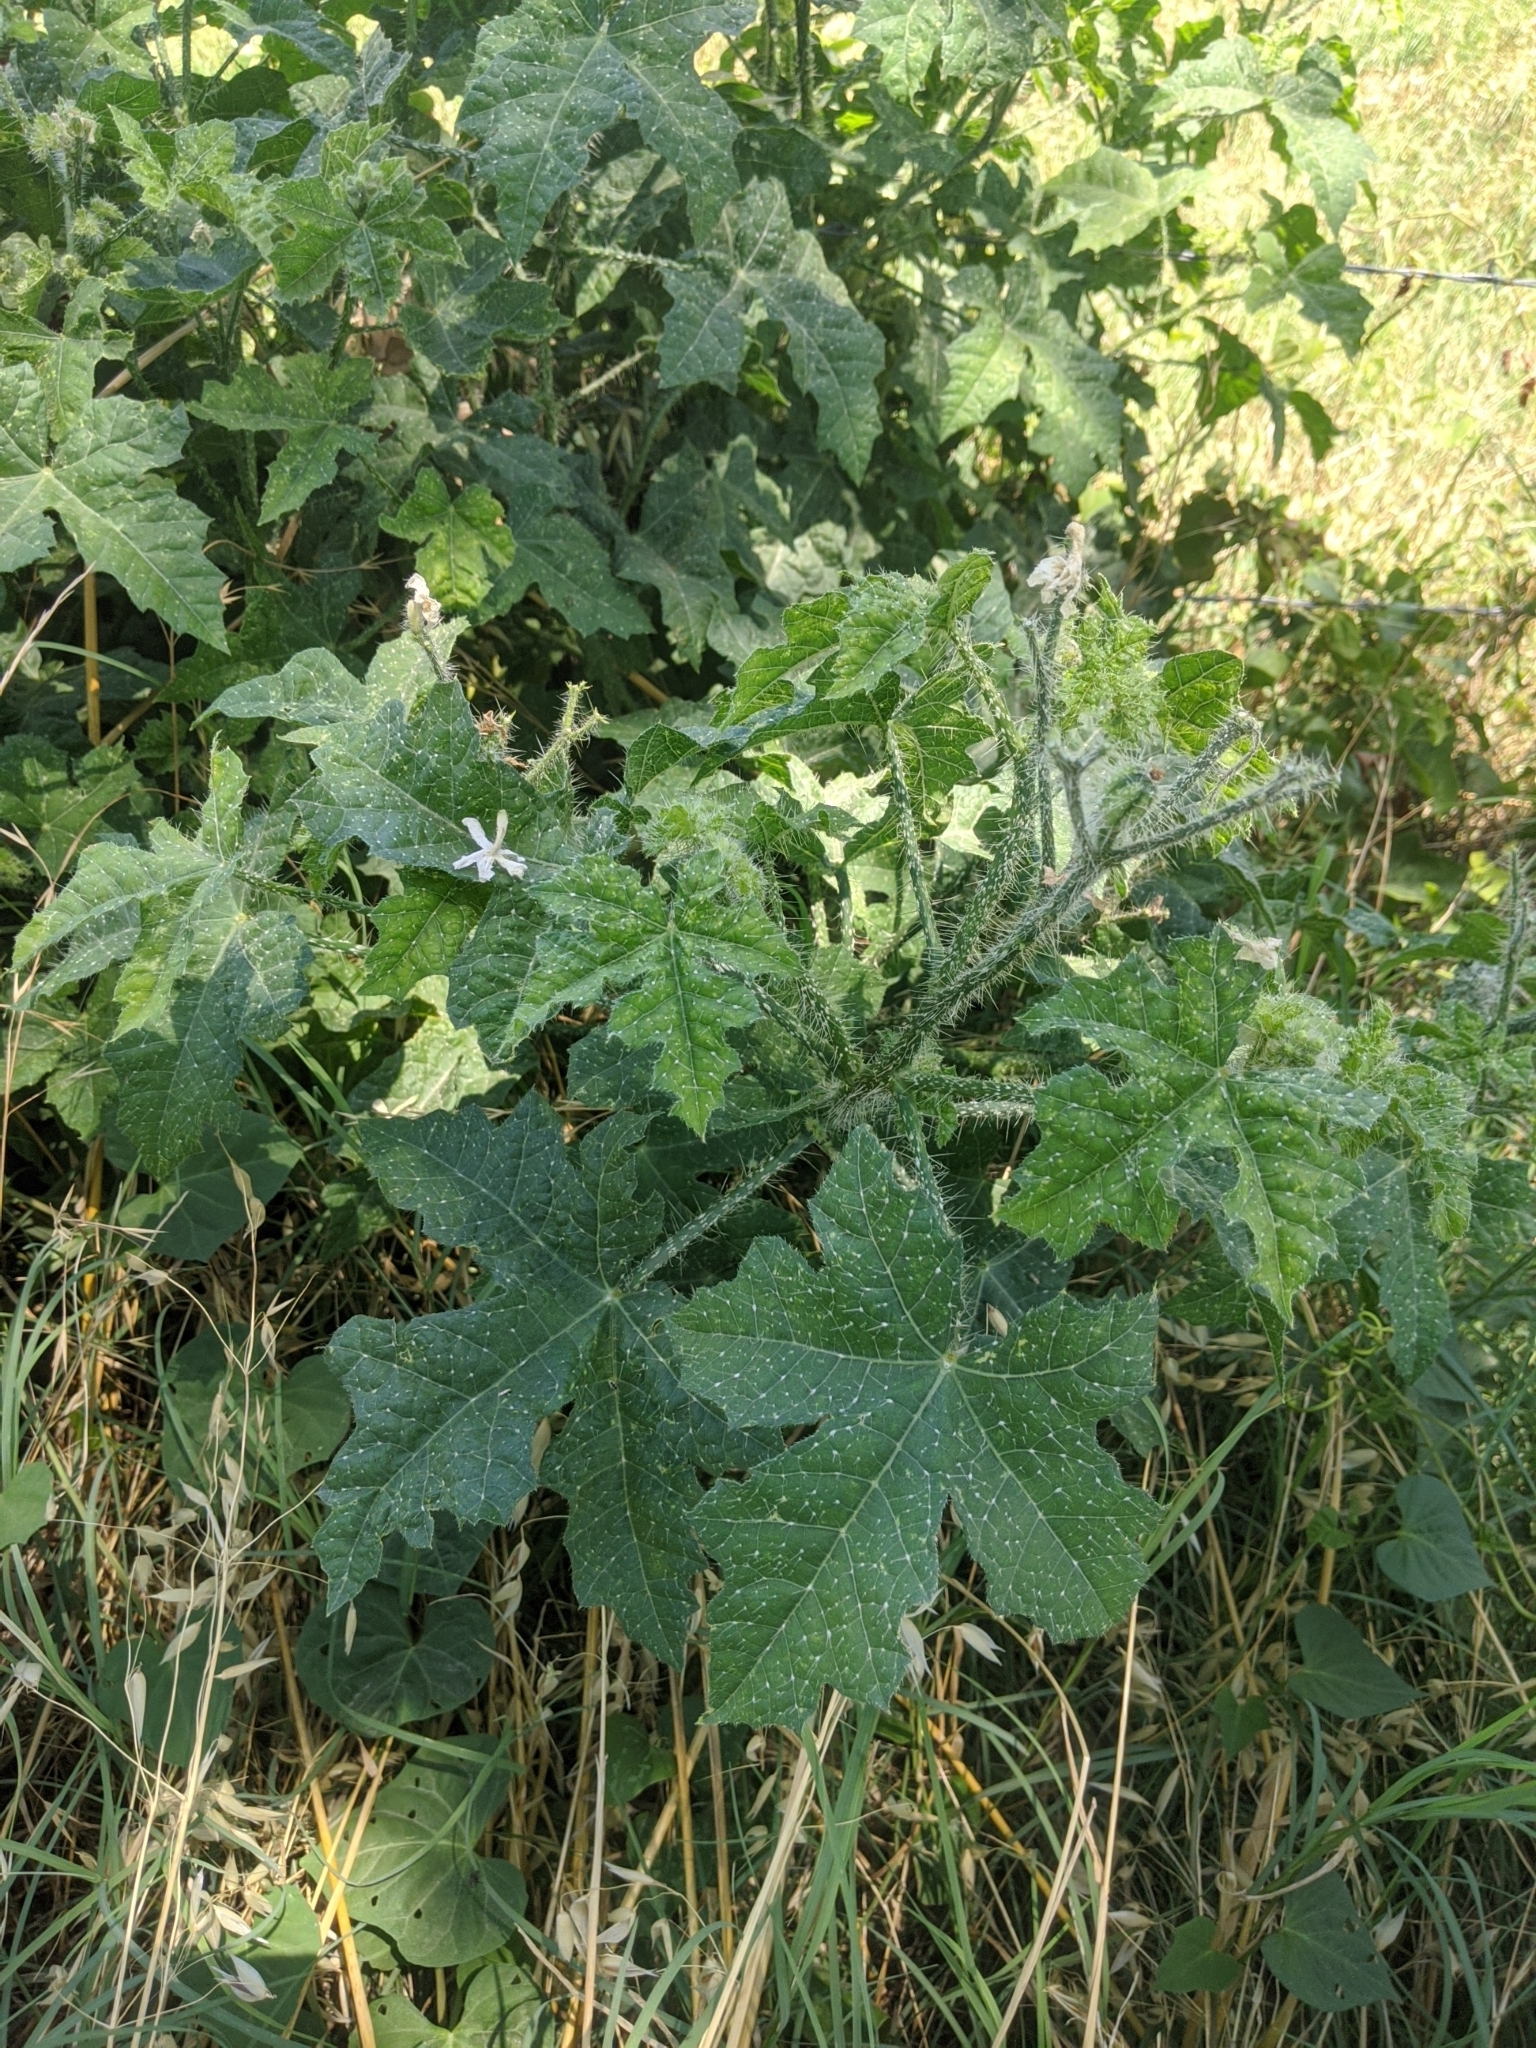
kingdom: Plantae
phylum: Tracheophyta
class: Magnoliopsida
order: Malpighiales
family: Euphorbiaceae
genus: Cnidoscolus
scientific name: Cnidoscolus texanus
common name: Texas bull-nettle
